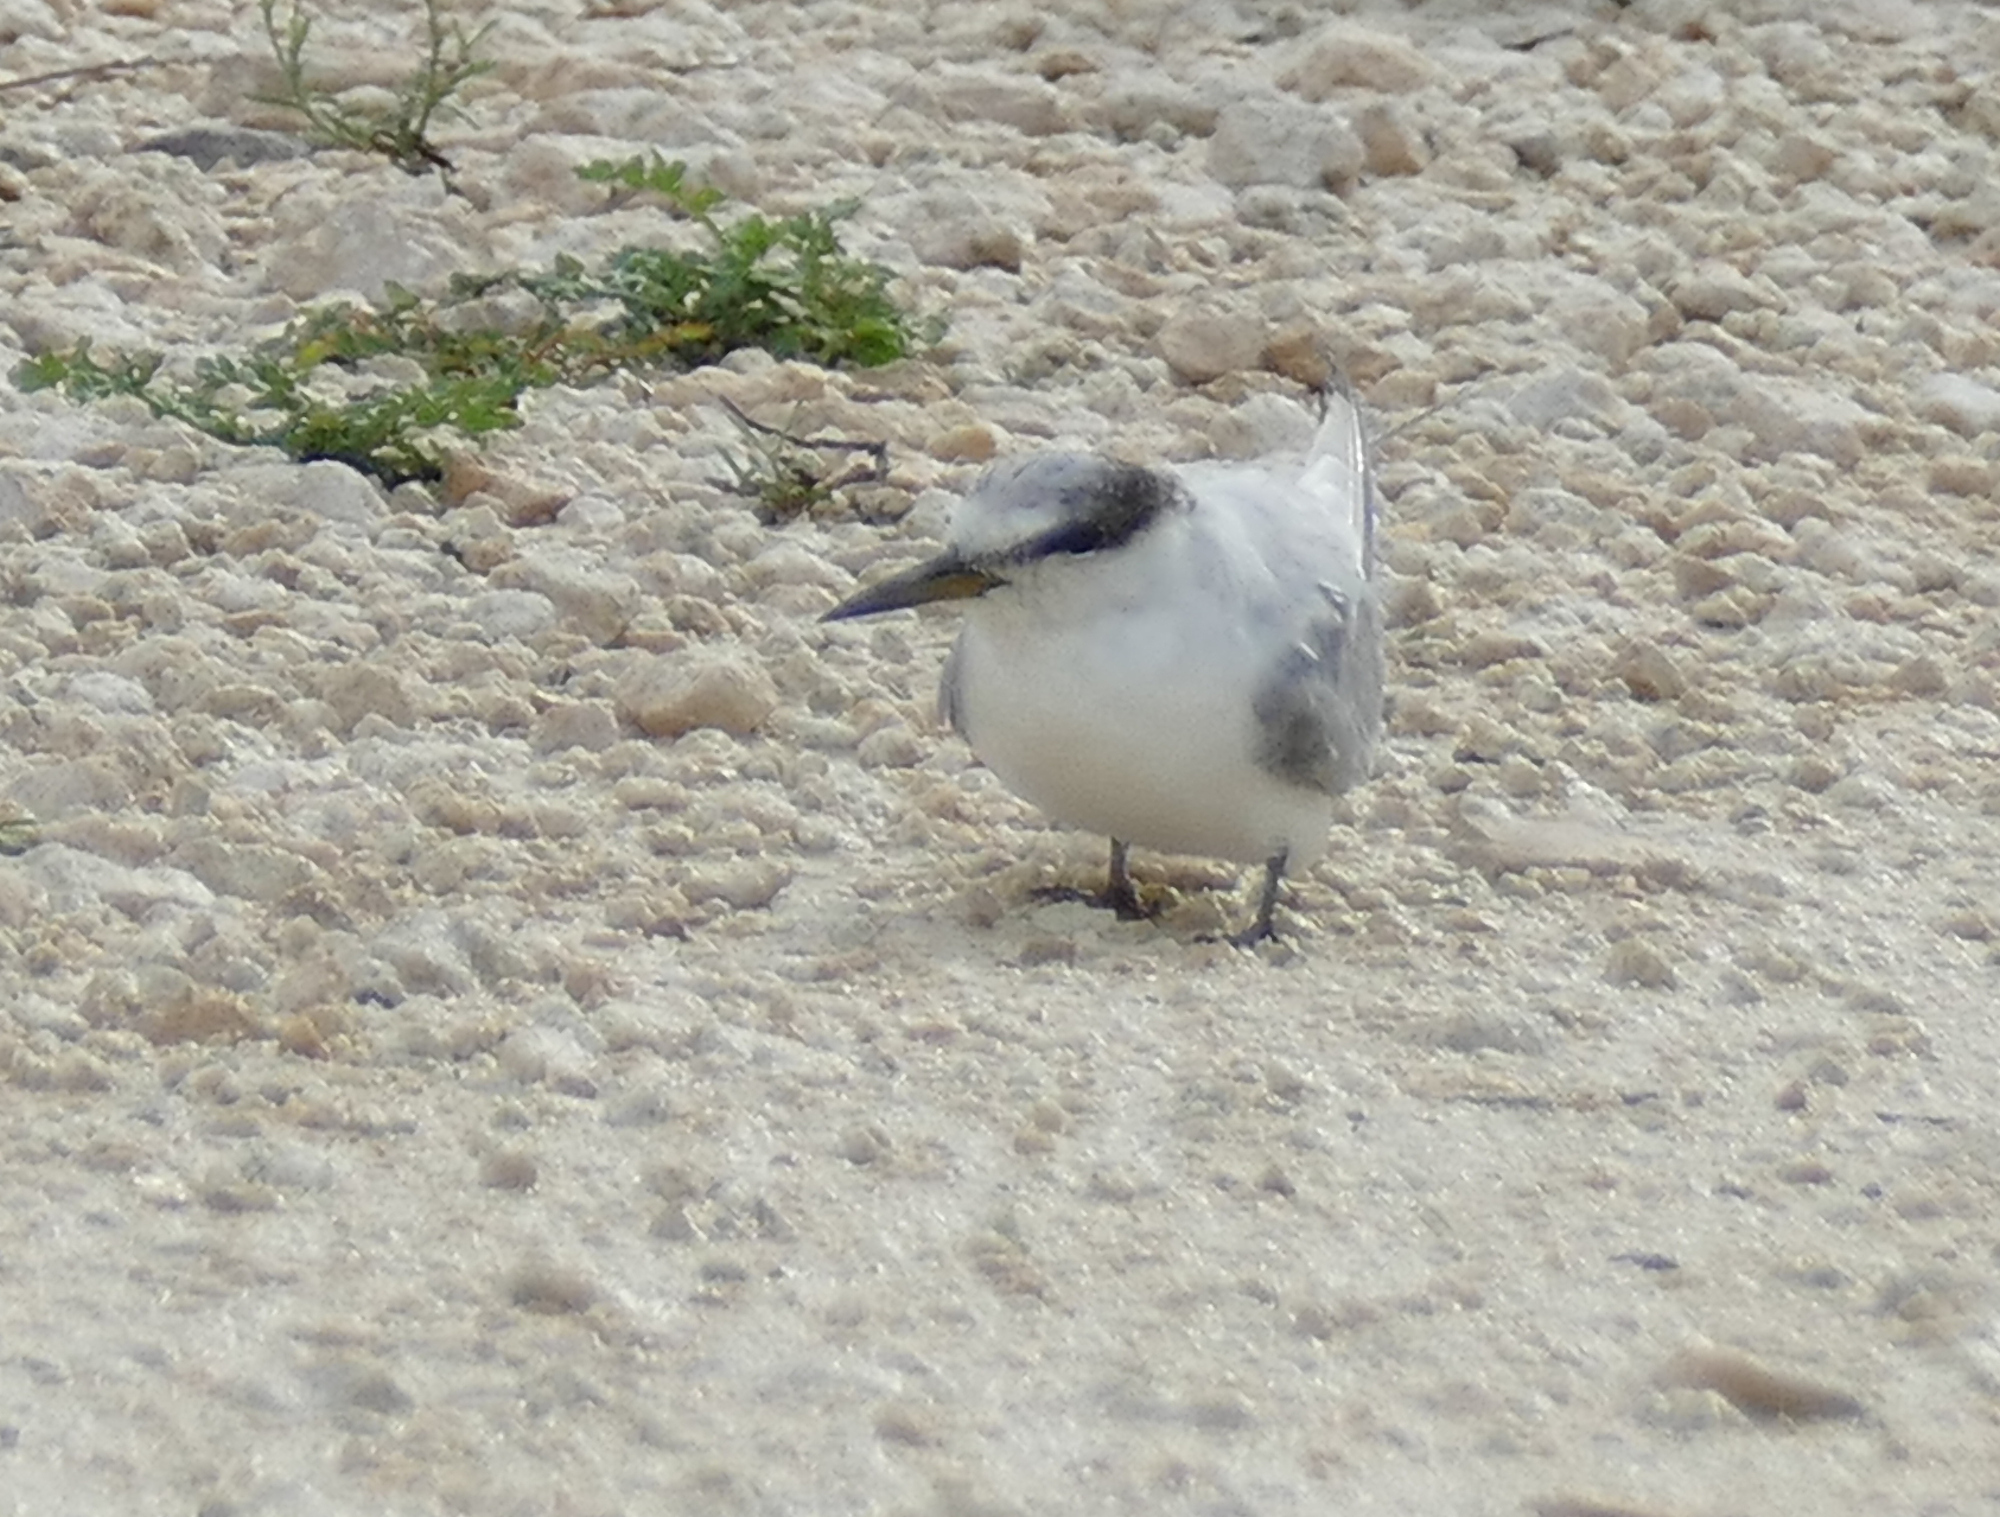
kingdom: Animalia
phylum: Chordata
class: Aves
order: Charadriiformes
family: Laridae
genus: Sternula
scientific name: Sternula antillarum
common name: Least tern
